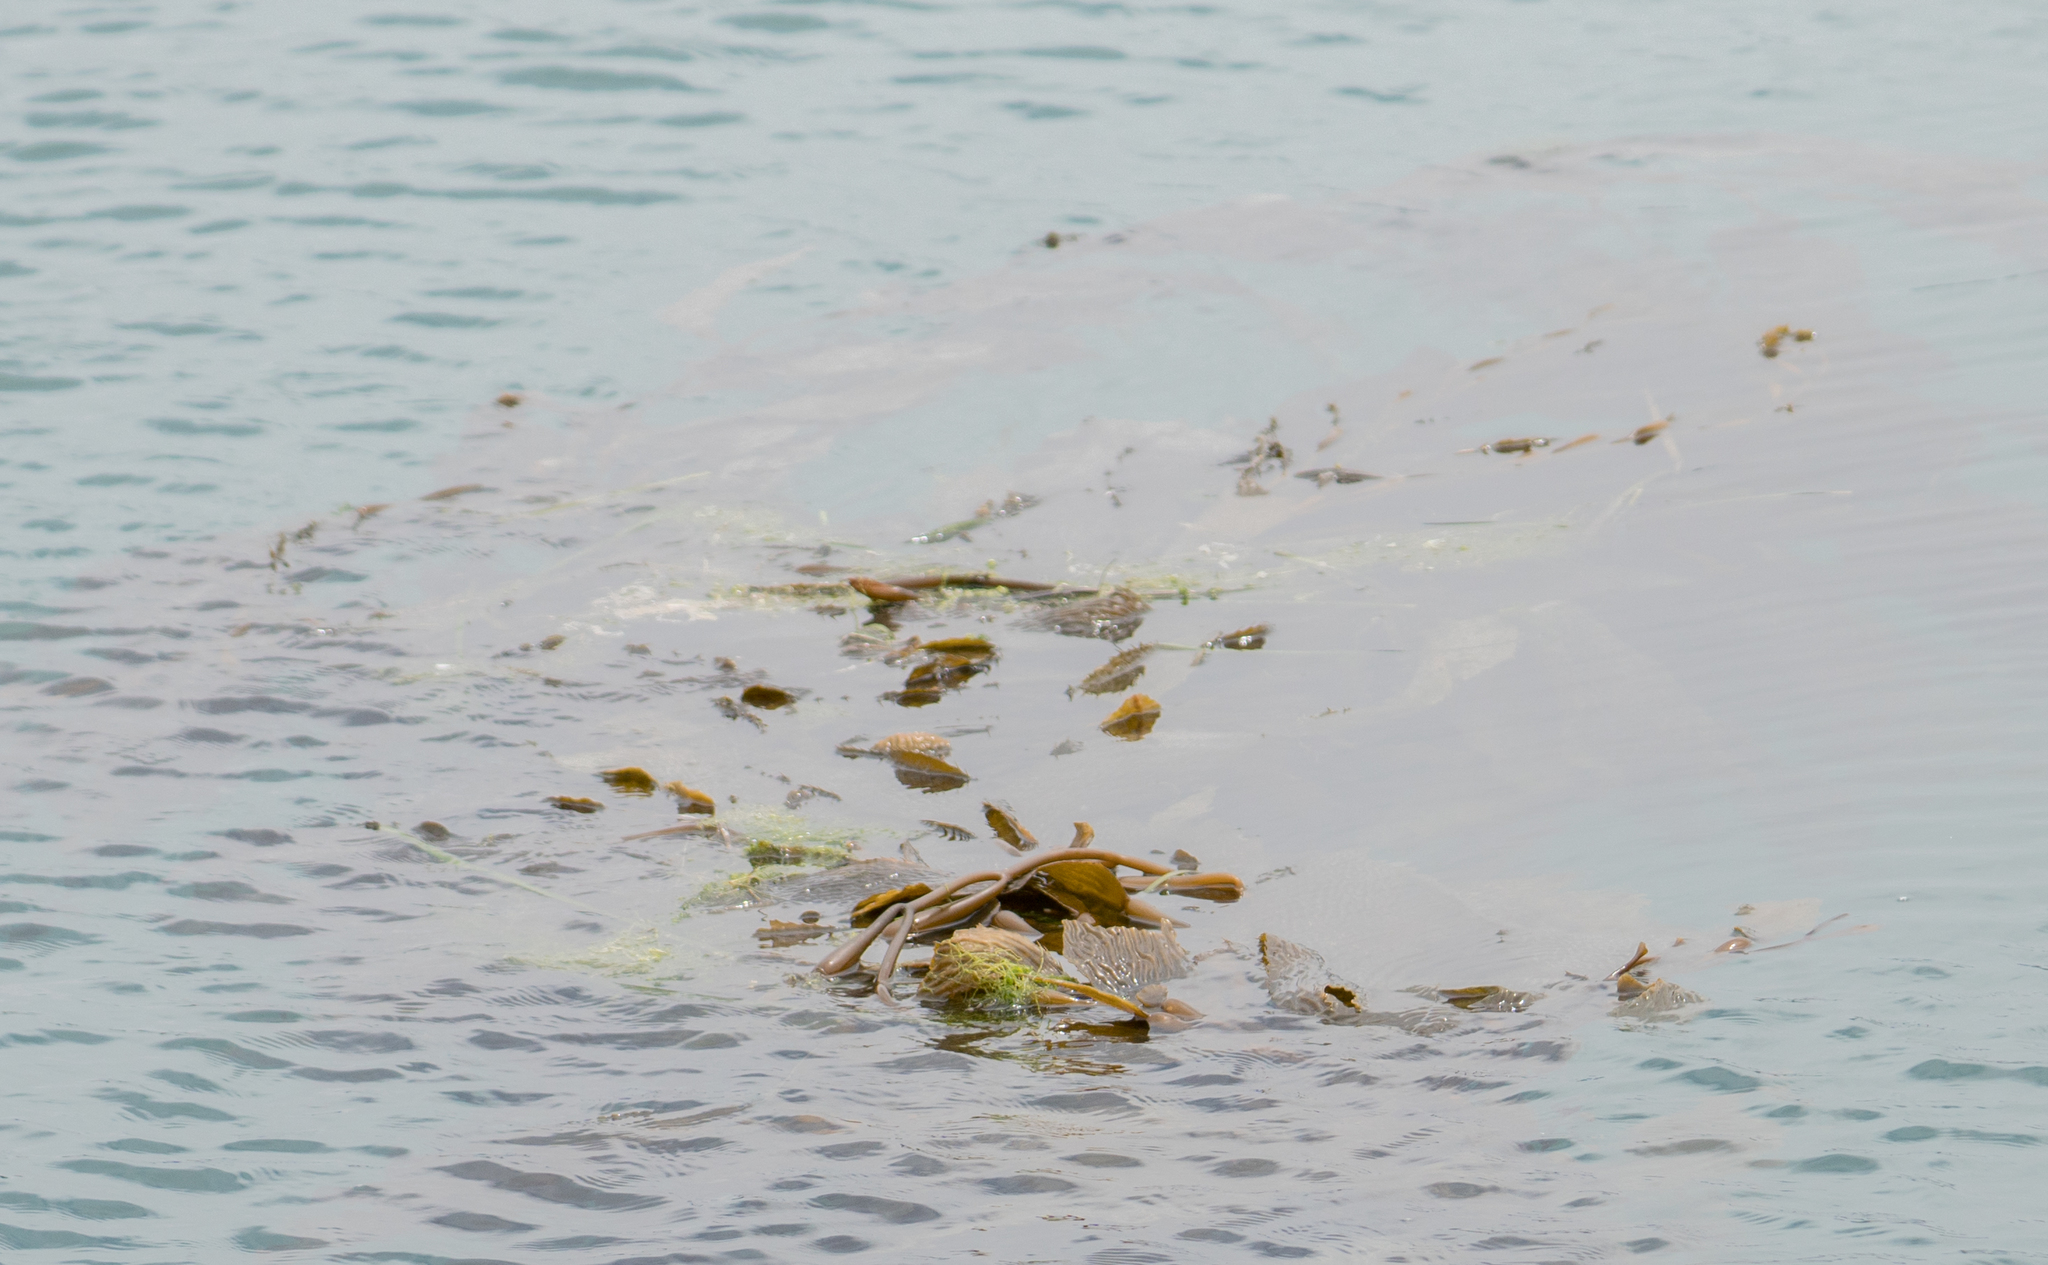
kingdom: Chromista
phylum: Ochrophyta
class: Phaeophyceae
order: Laminariales
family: Laminariaceae
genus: Macrocystis
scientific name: Macrocystis pyrifera
